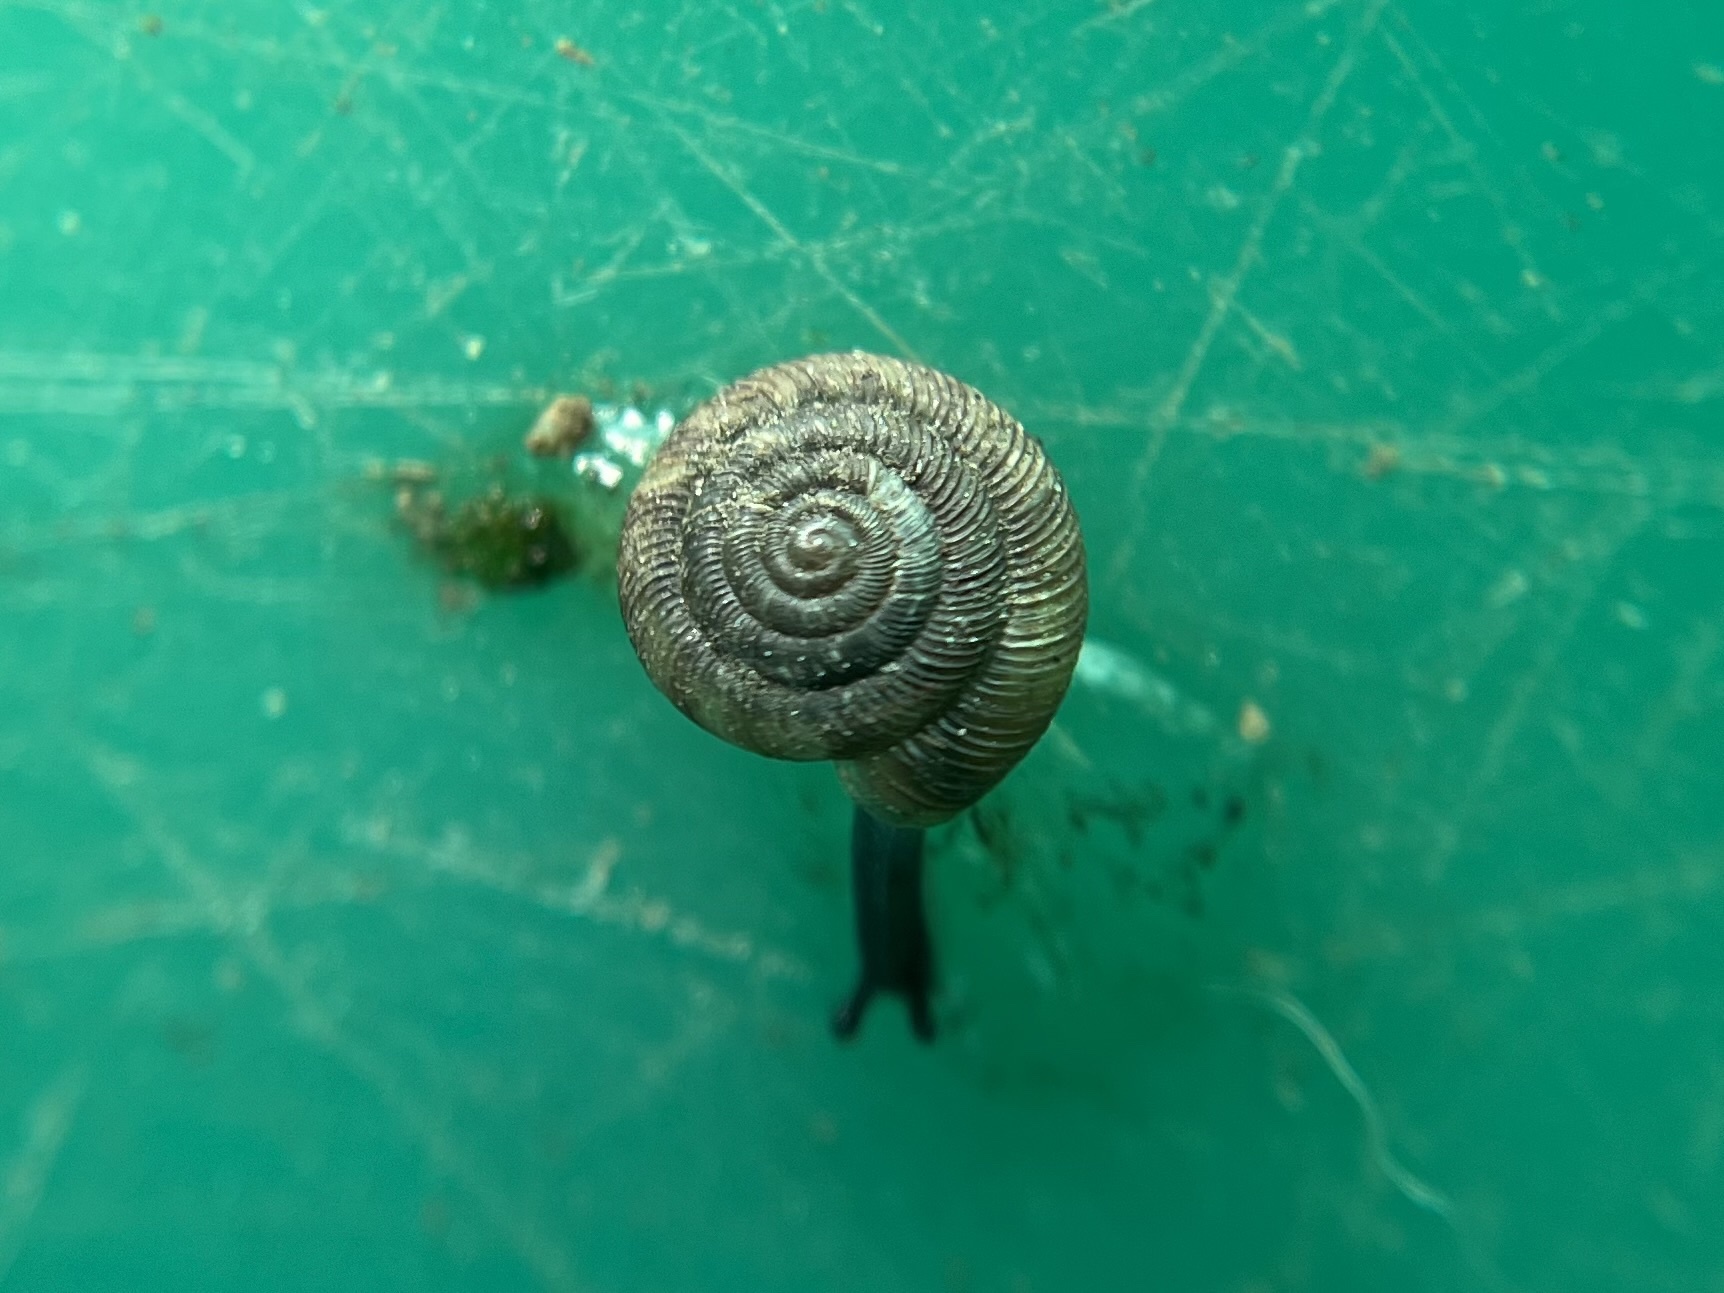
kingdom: Animalia
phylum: Mollusca
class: Gastropoda
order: Stylommatophora
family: Discidae
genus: Discus
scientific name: Discus rotundatus
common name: Rounded snail
